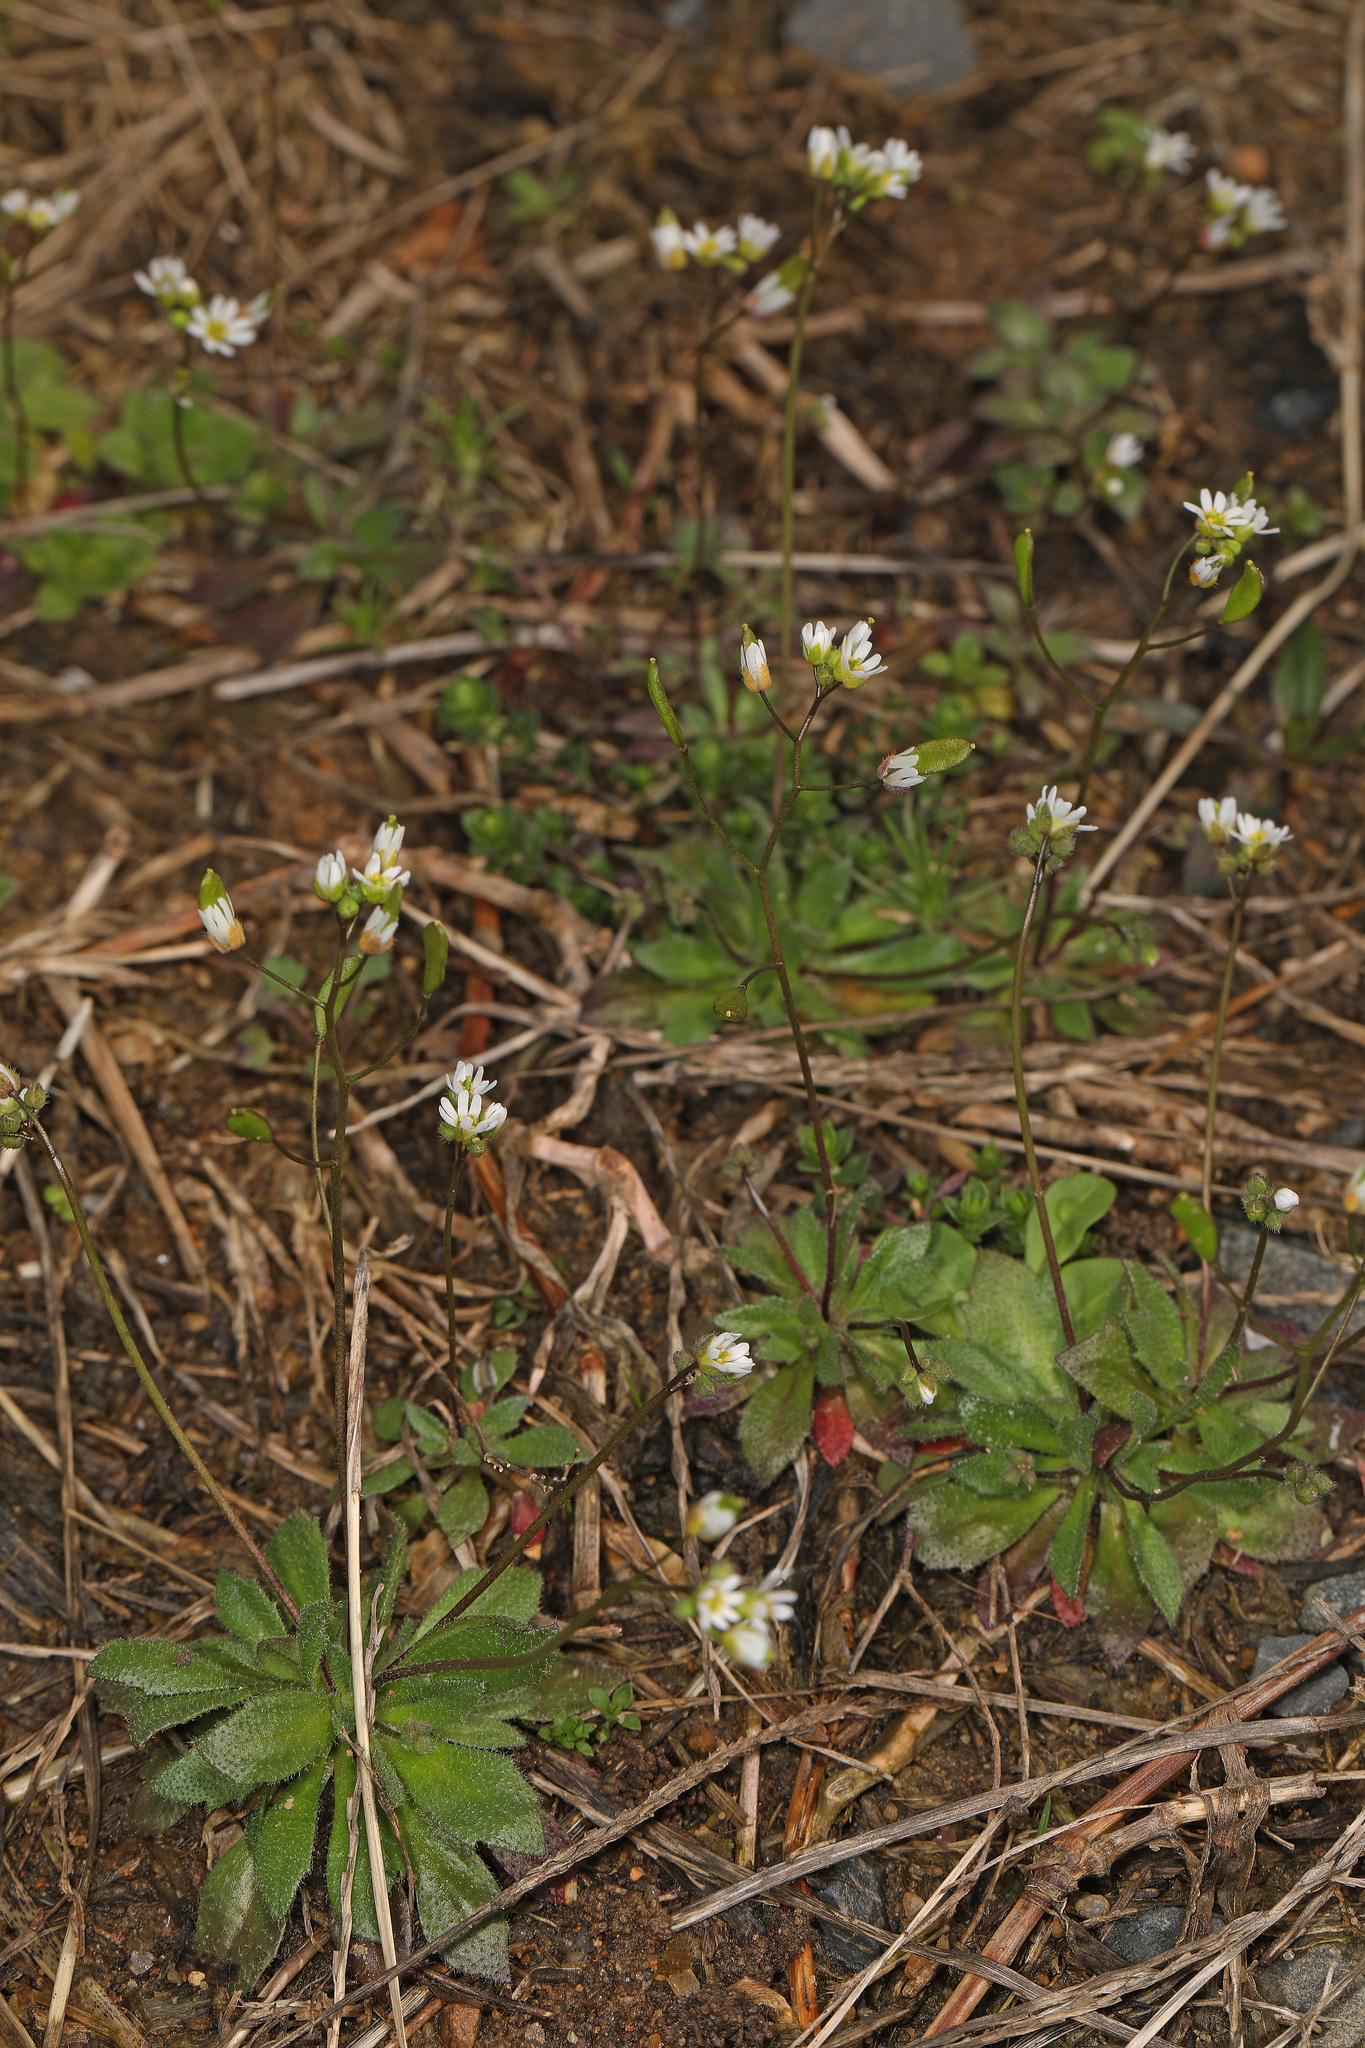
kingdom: Plantae
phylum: Tracheophyta
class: Magnoliopsida
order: Brassicales
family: Brassicaceae
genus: Draba
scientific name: Draba verna
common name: Spring draba
